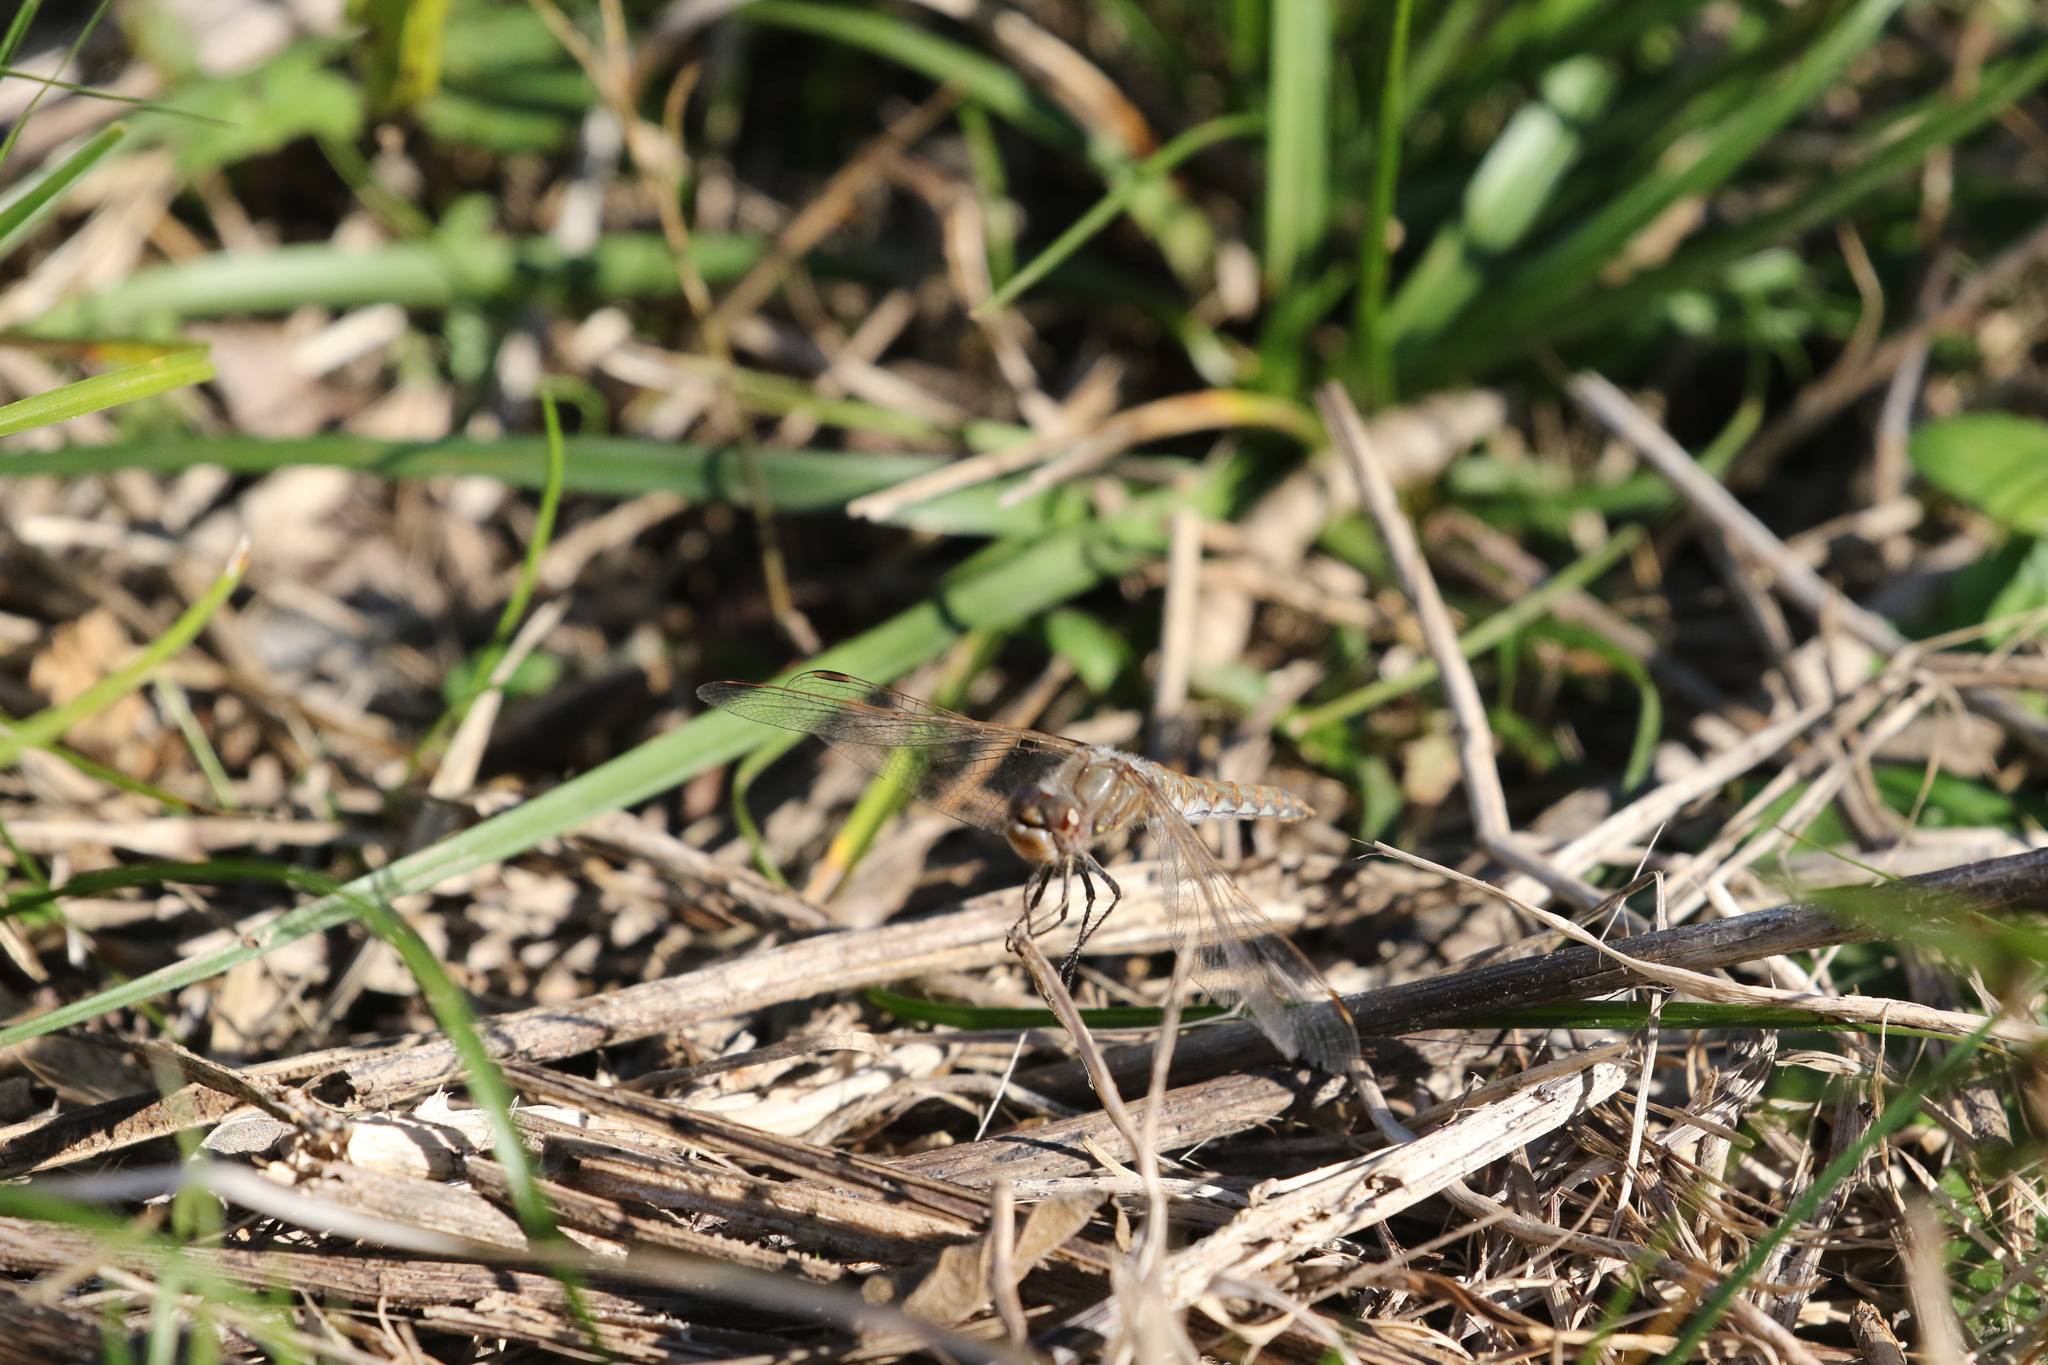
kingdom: Animalia
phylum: Arthropoda
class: Insecta
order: Odonata
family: Libellulidae
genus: Sympetrum
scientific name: Sympetrum corruptum
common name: Variegated meadowhawk
